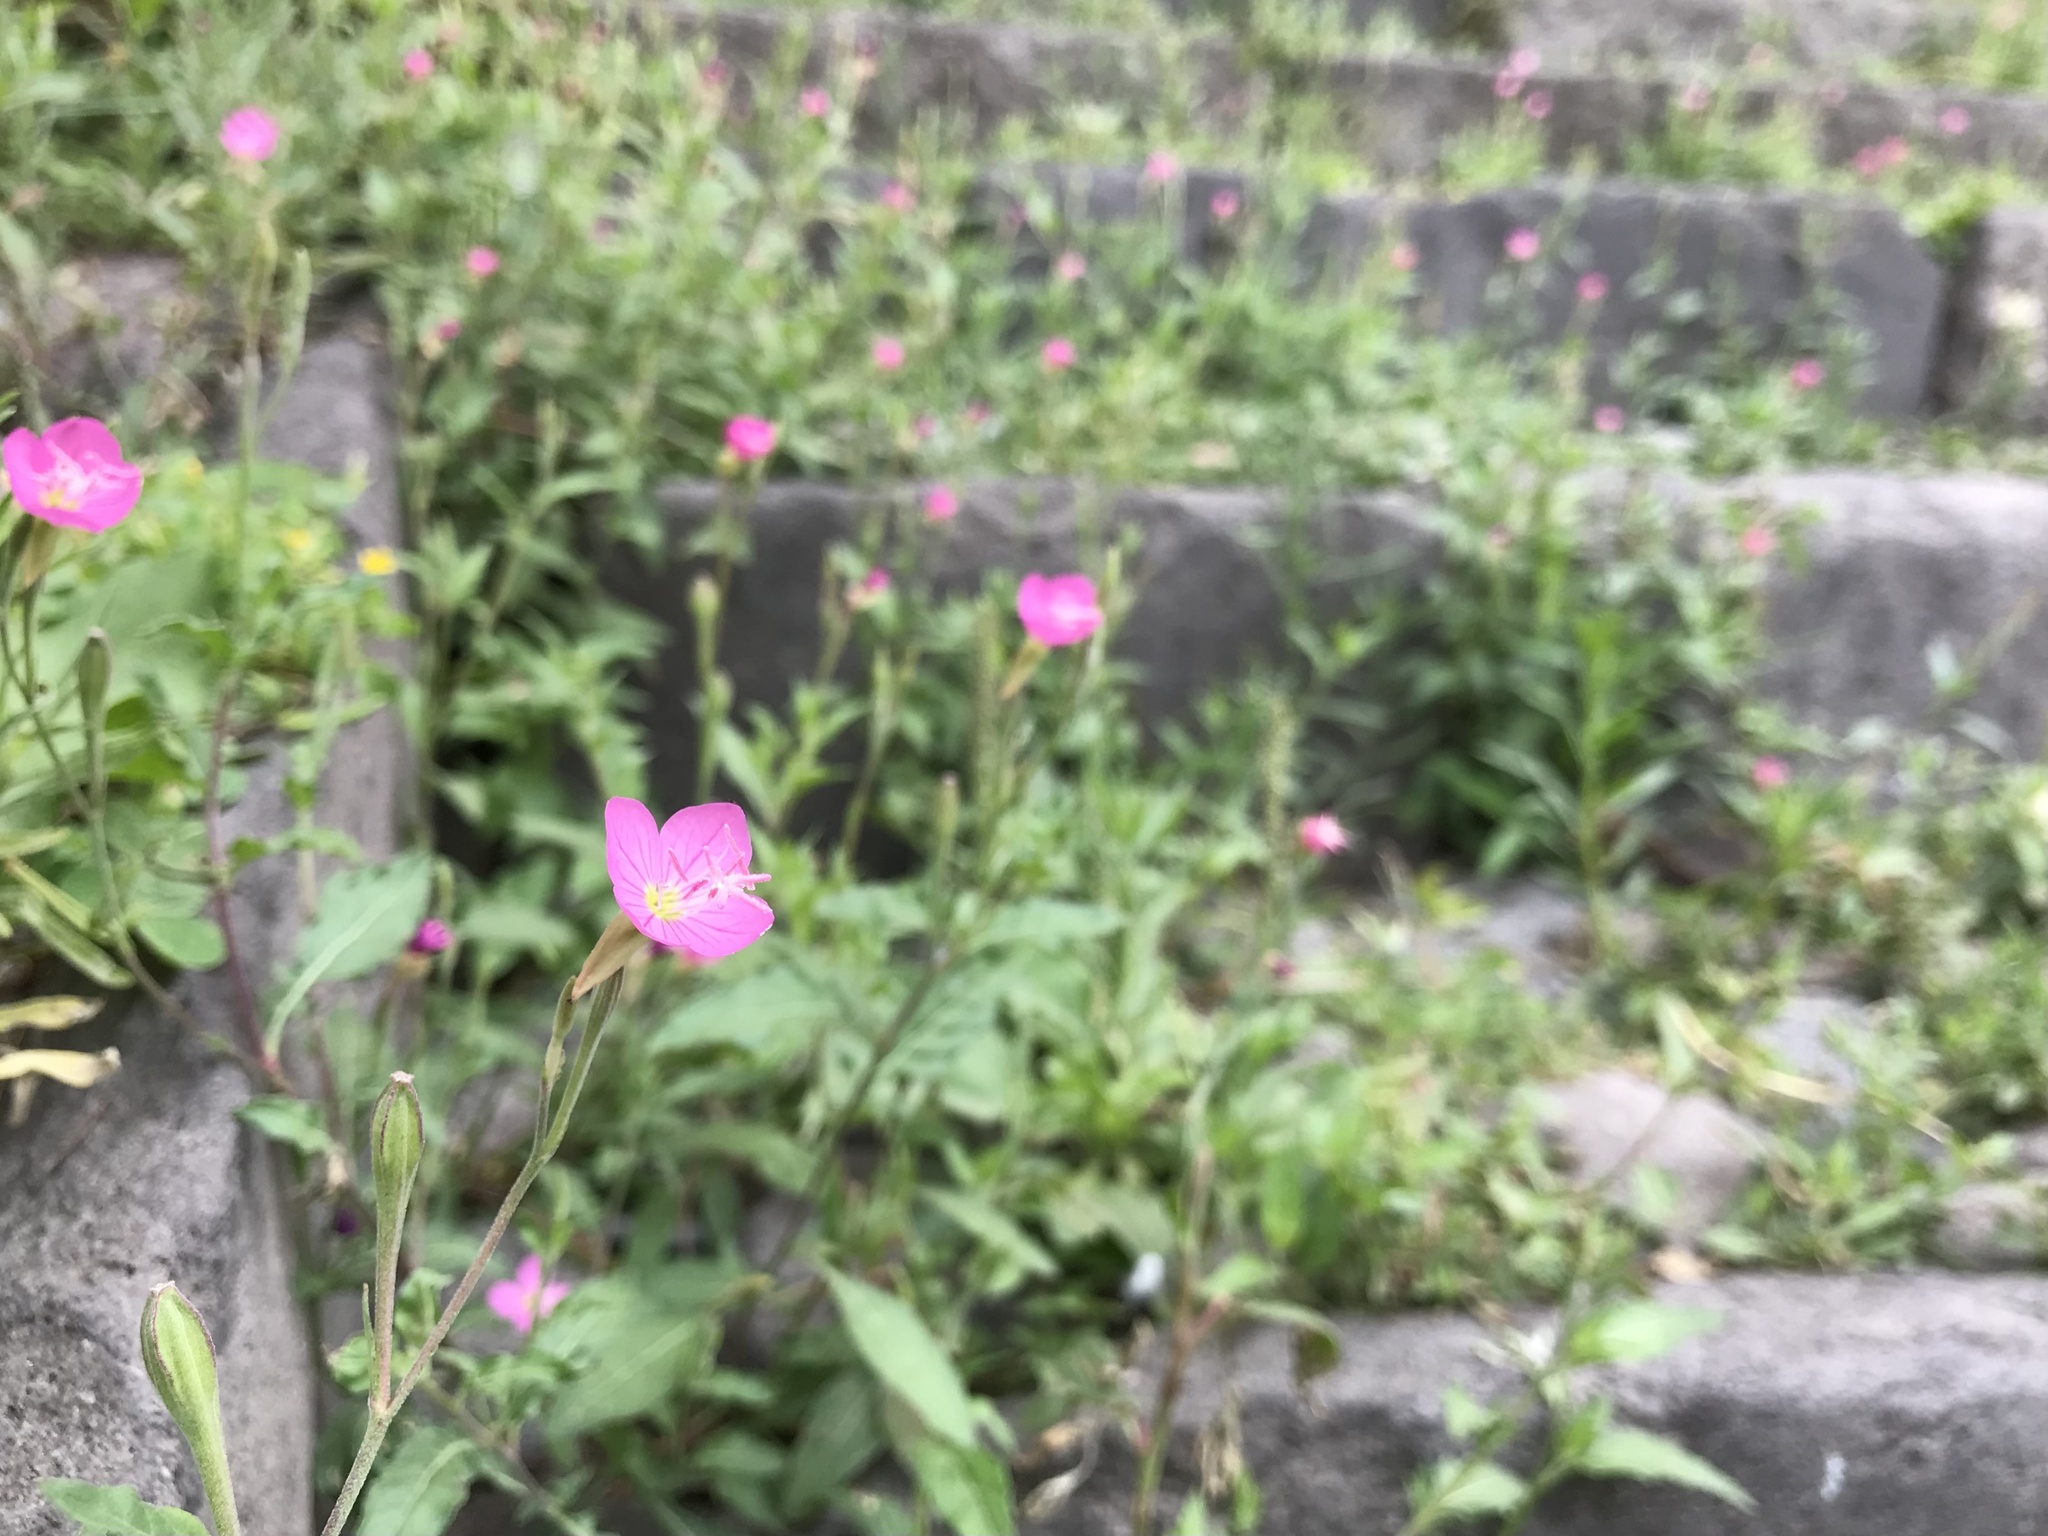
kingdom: Plantae
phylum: Tracheophyta
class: Magnoliopsida
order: Myrtales
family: Onagraceae
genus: Oenothera
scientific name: Oenothera rosea
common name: Rosy evening-primrose
